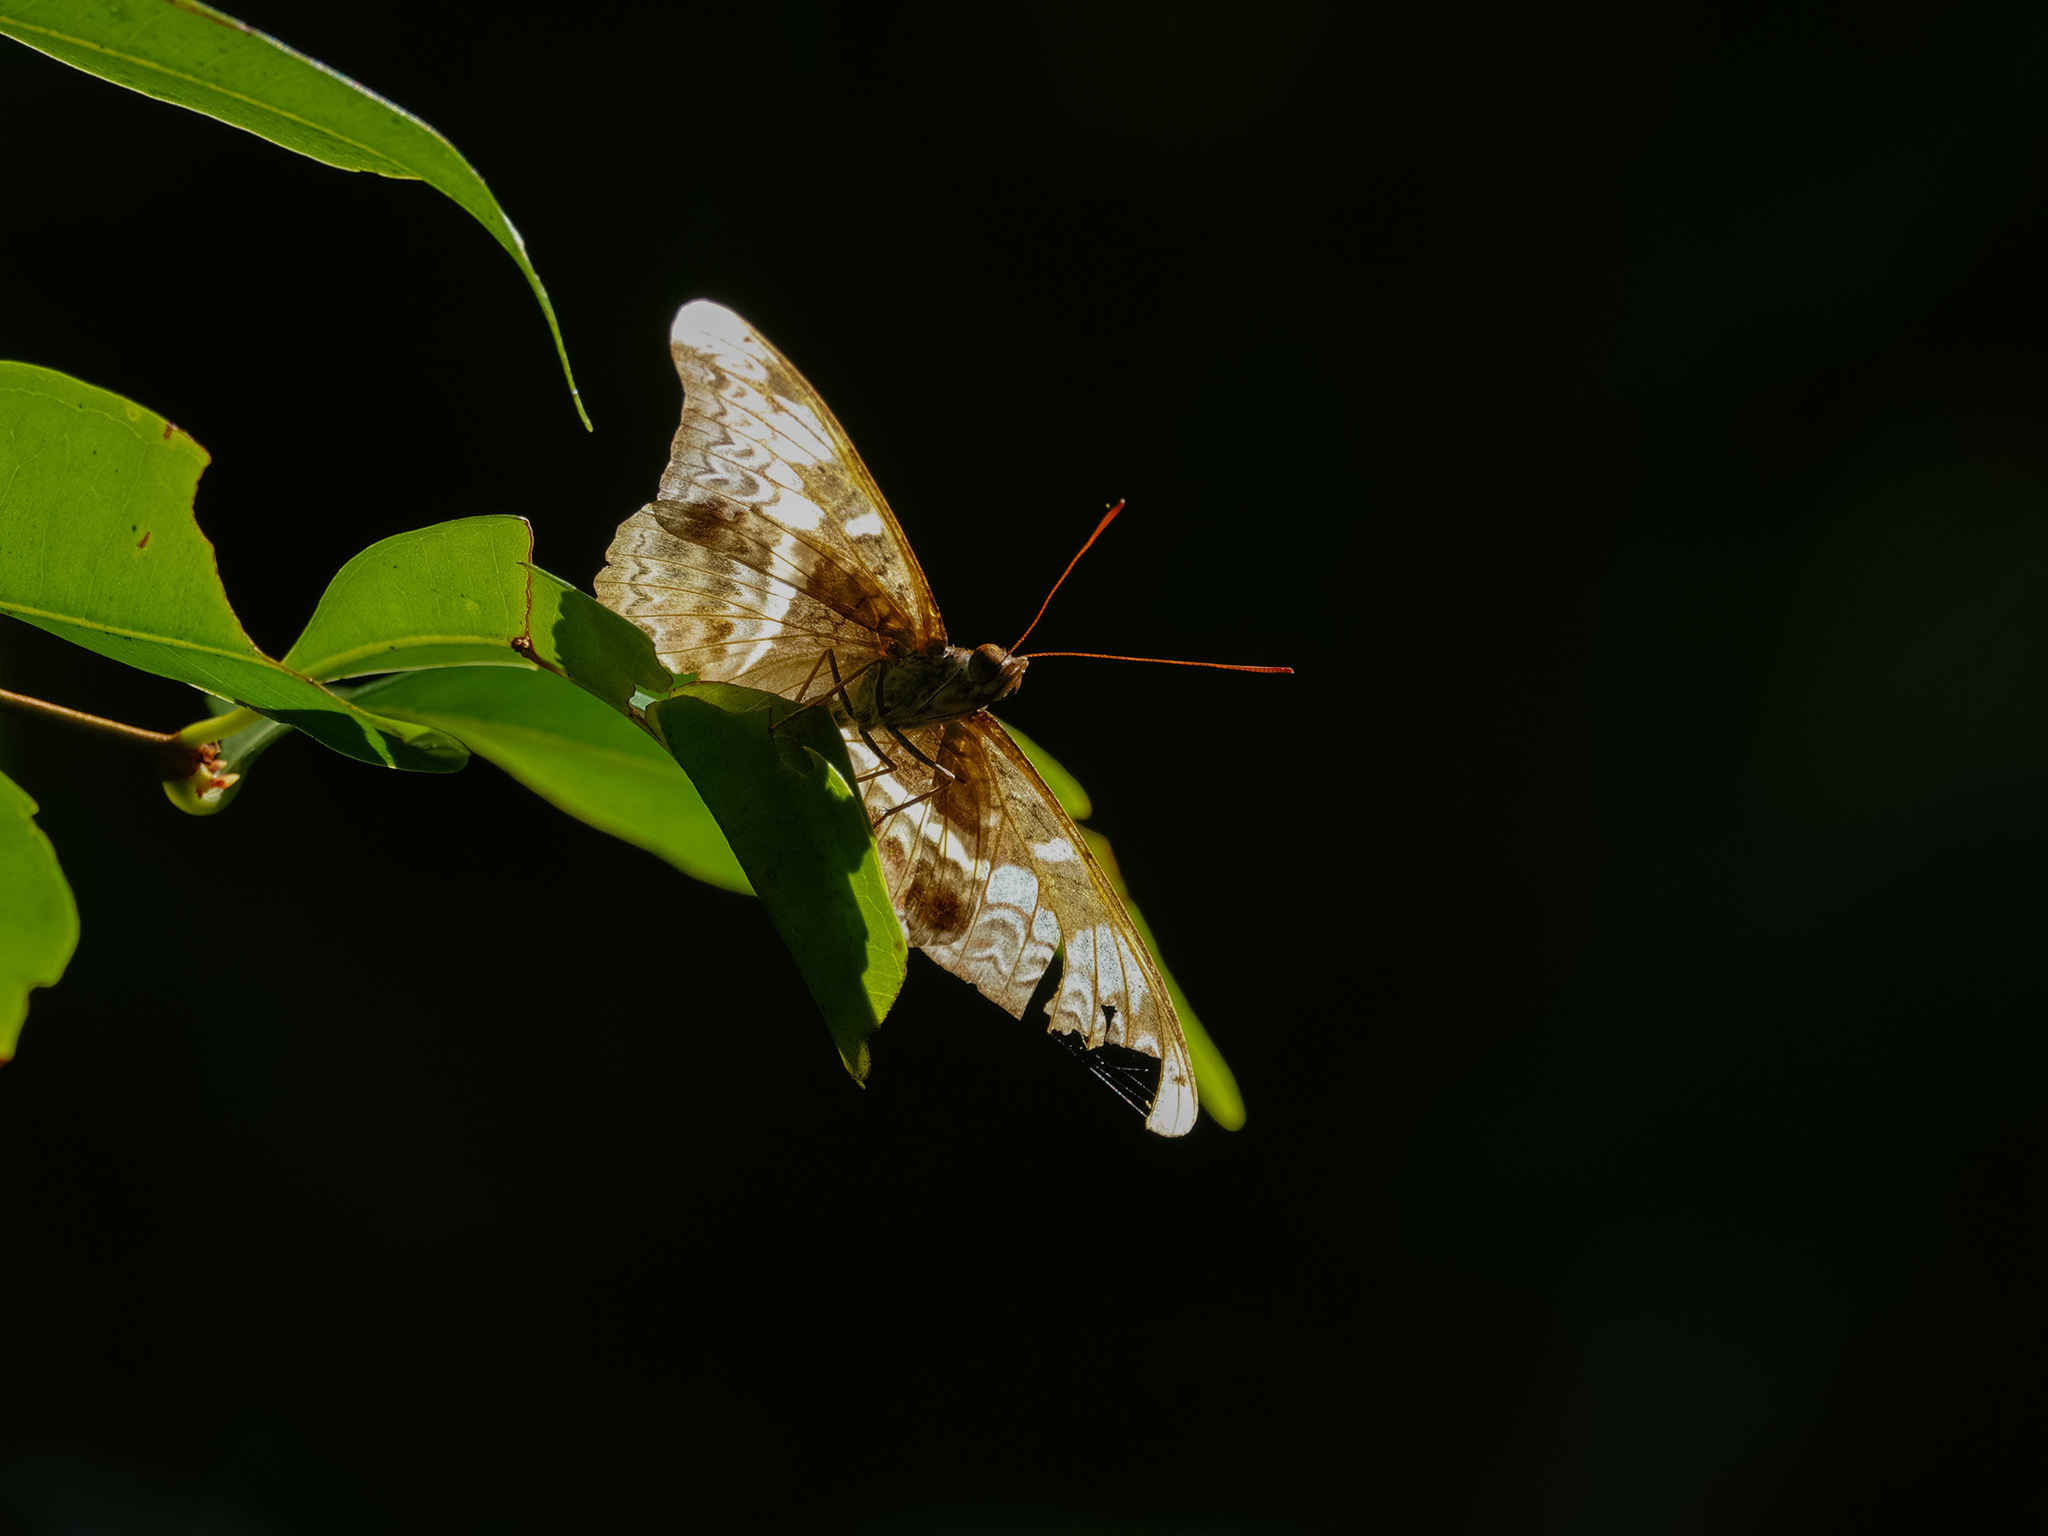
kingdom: Animalia
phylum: Arthropoda
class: Insecta
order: Lepidoptera
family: Nymphalidae
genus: Lebadea
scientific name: Lebadea martha
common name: Knight
